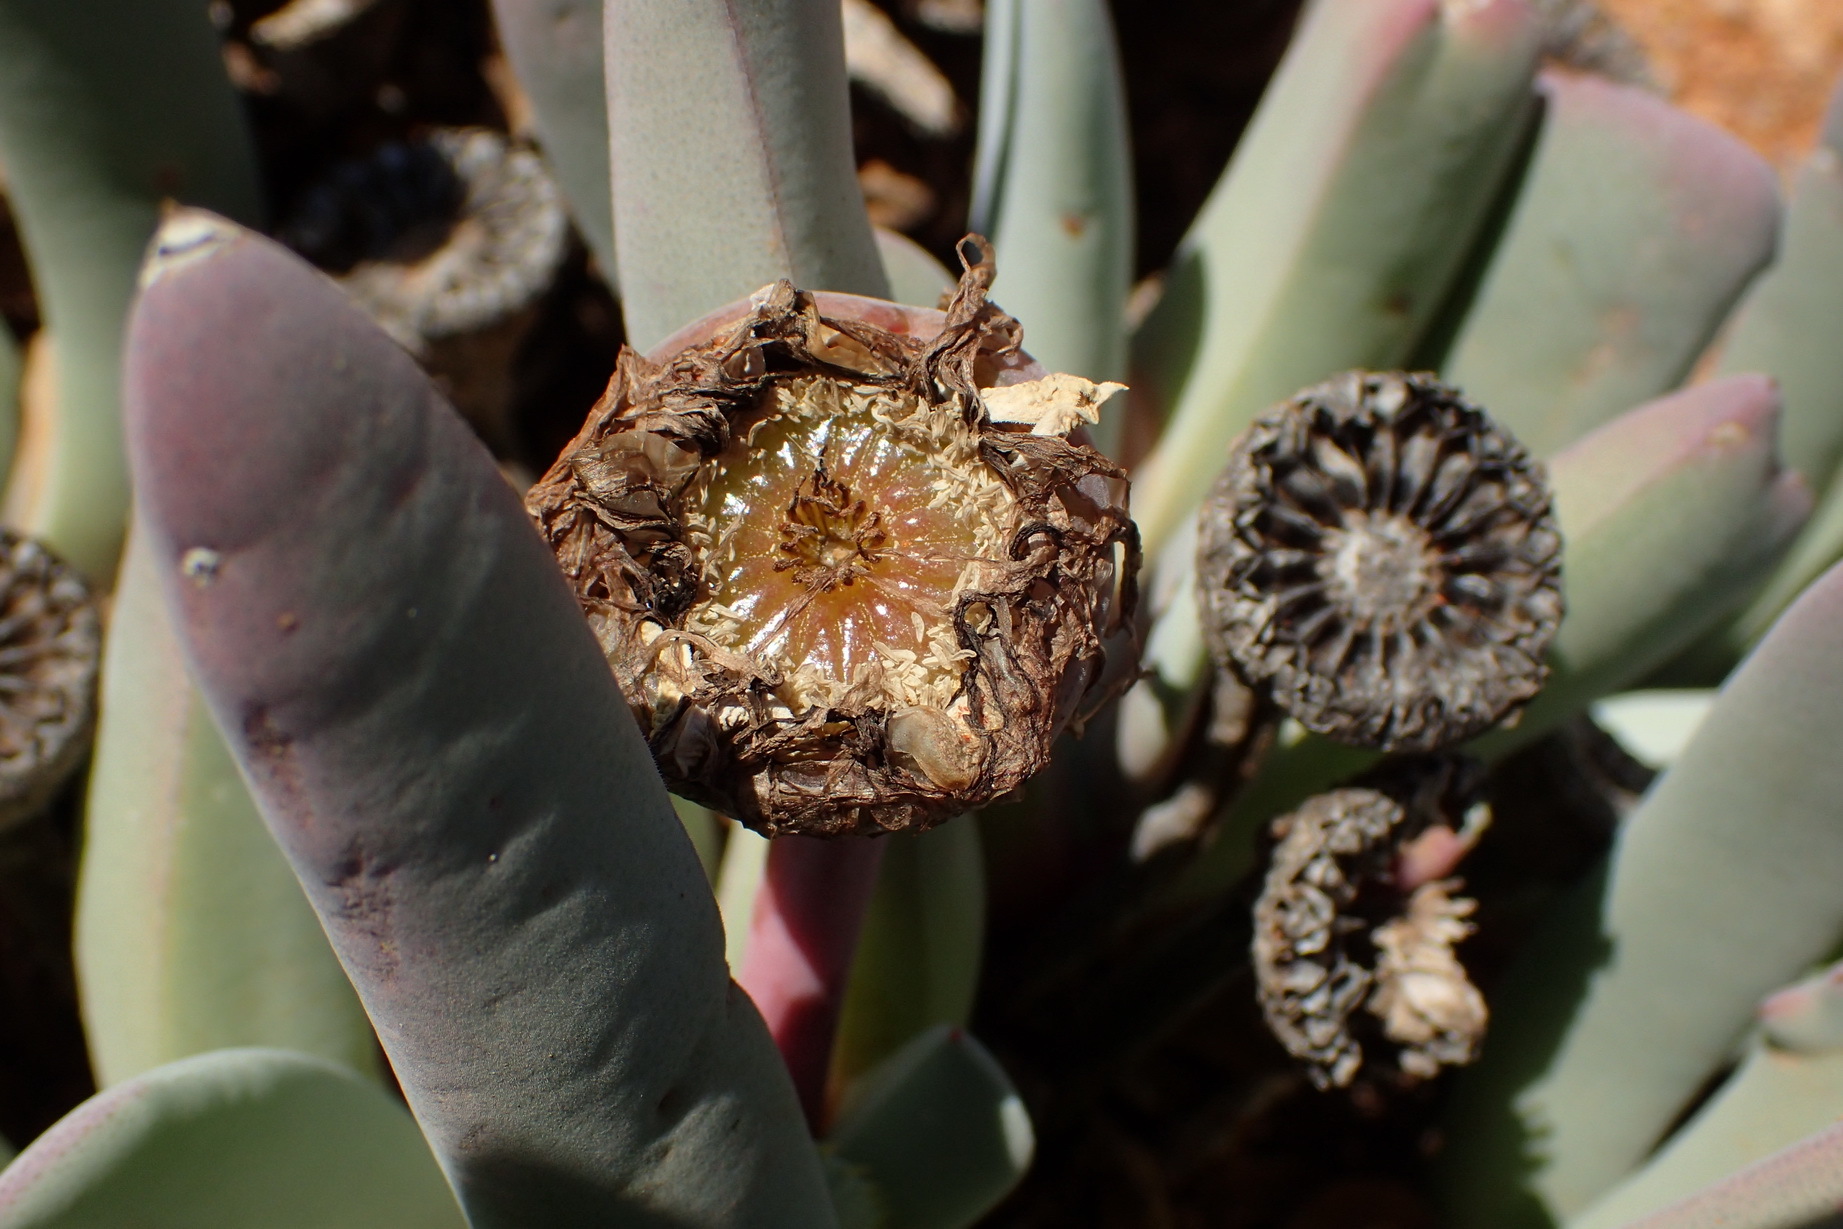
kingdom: Plantae
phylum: Tracheophyta
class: Magnoliopsida
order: Caryophyllales
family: Aizoaceae
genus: Cheiridopsis
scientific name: Cheiridopsis denticulata
